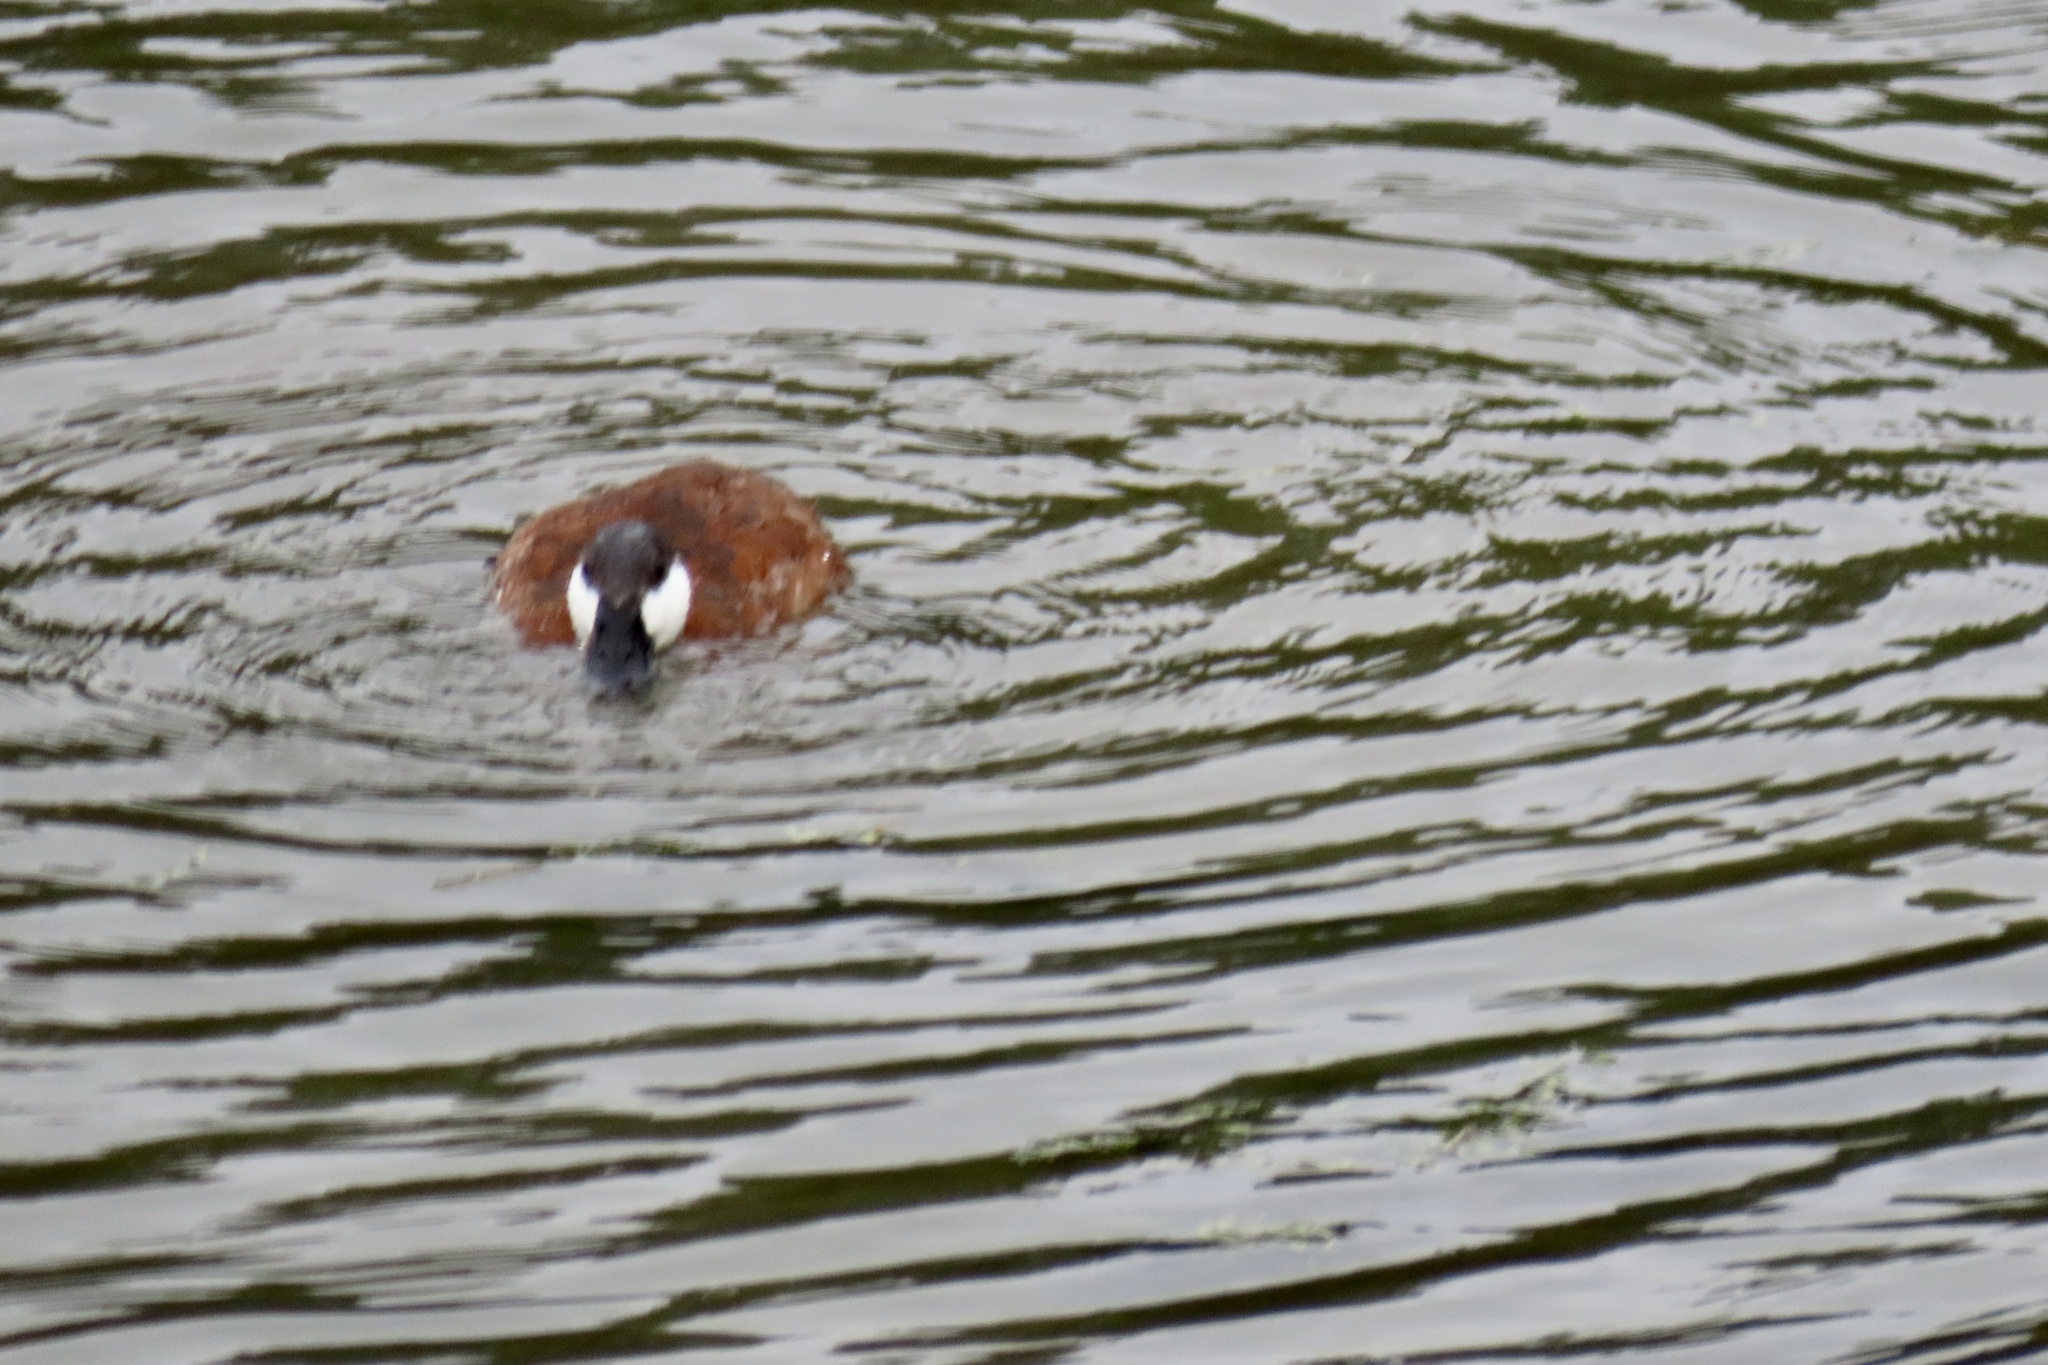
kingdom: Animalia
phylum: Chordata
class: Aves
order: Anseriformes
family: Anatidae
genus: Oxyura
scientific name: Oxyura jamaicensis
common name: Ruddy duck
